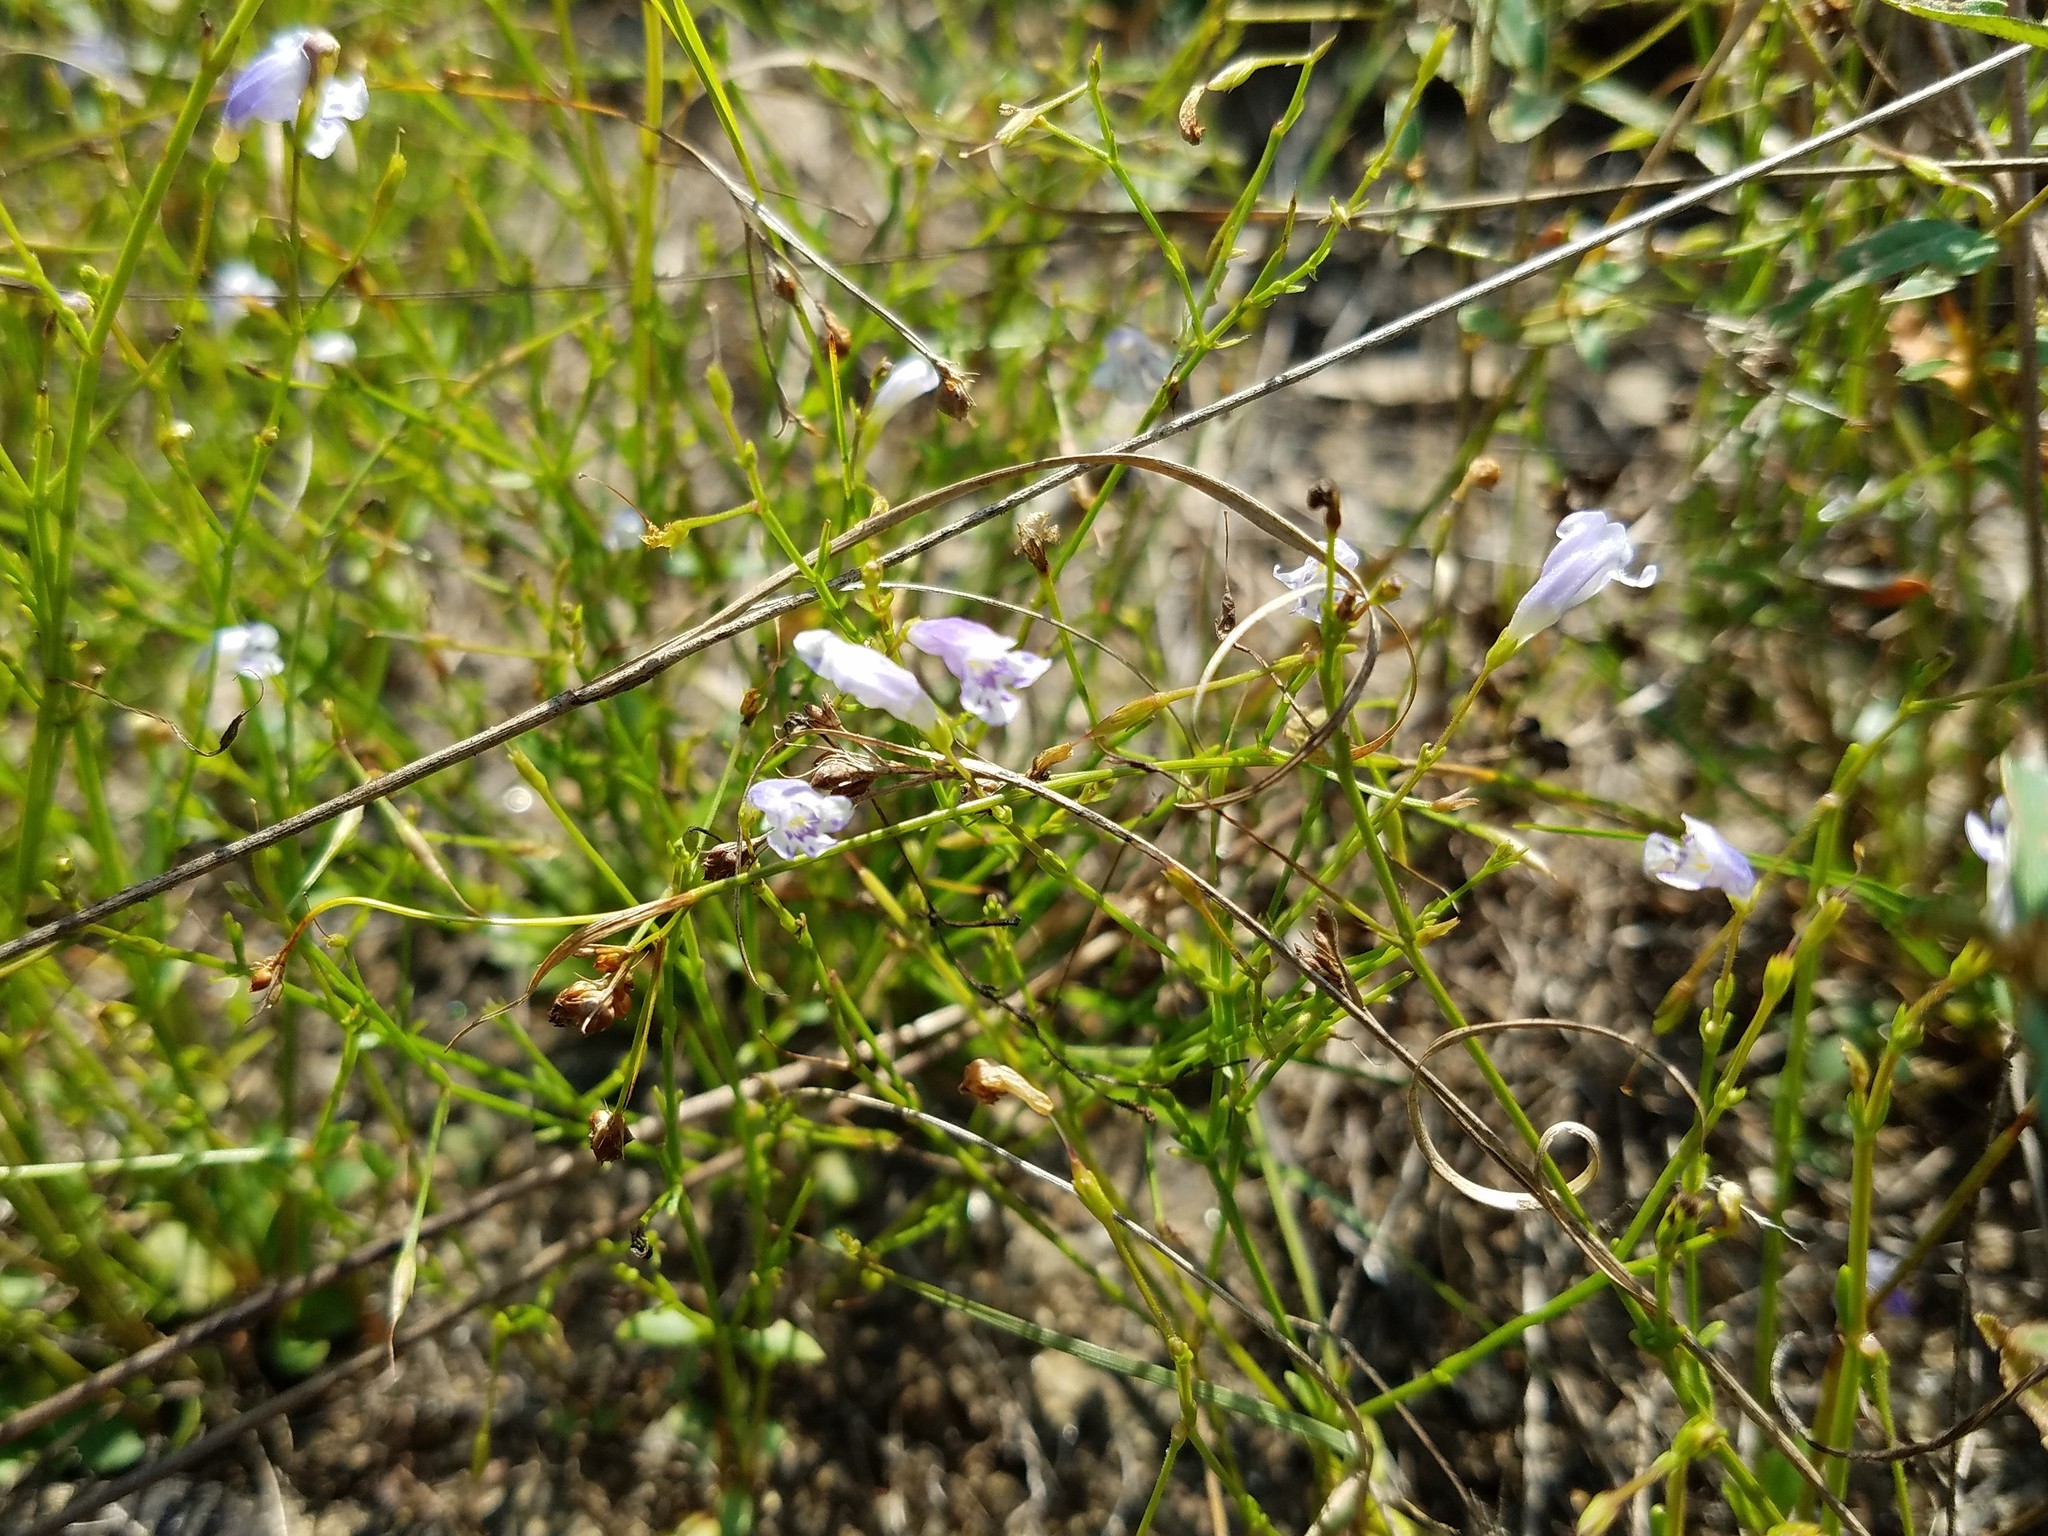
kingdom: Plantae
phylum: Tracheophyta
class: Magnoliopsida
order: Lamiales
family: Linderniaceae
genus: Lindernia
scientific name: Lindernia monticola
